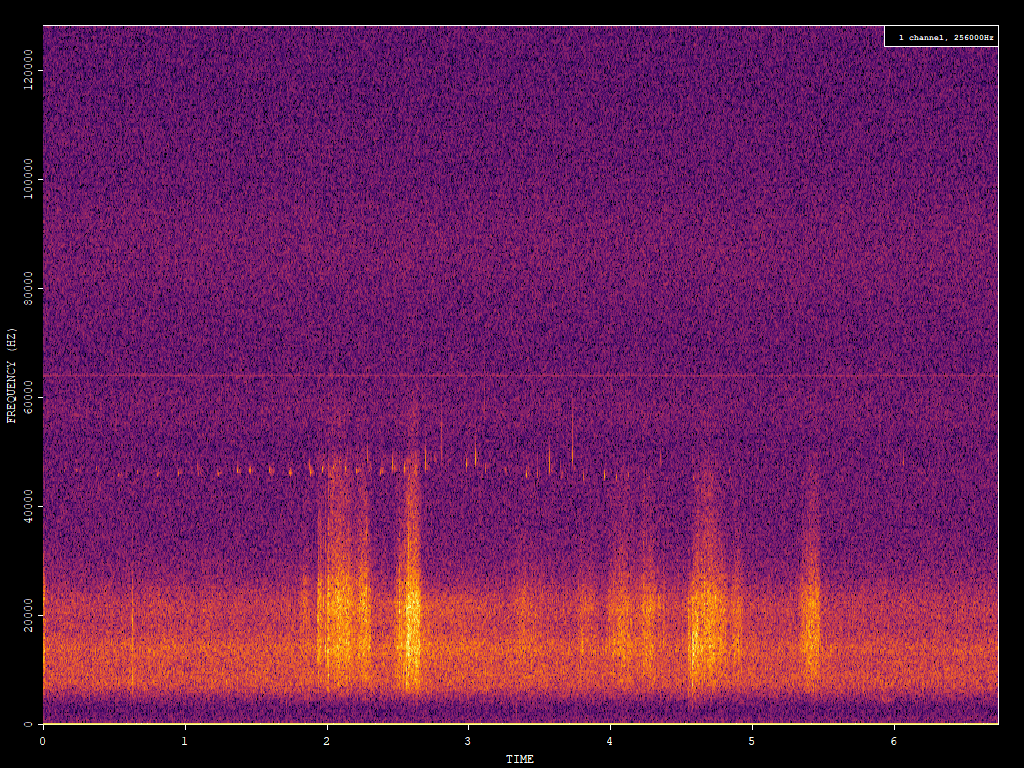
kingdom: Animalia
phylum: Chordata
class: Mammalia
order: Chiroptera
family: Vespertilionidae
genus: Pipistrellus
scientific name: Pipistrellus pipistrellus
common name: Common pipistrelle
